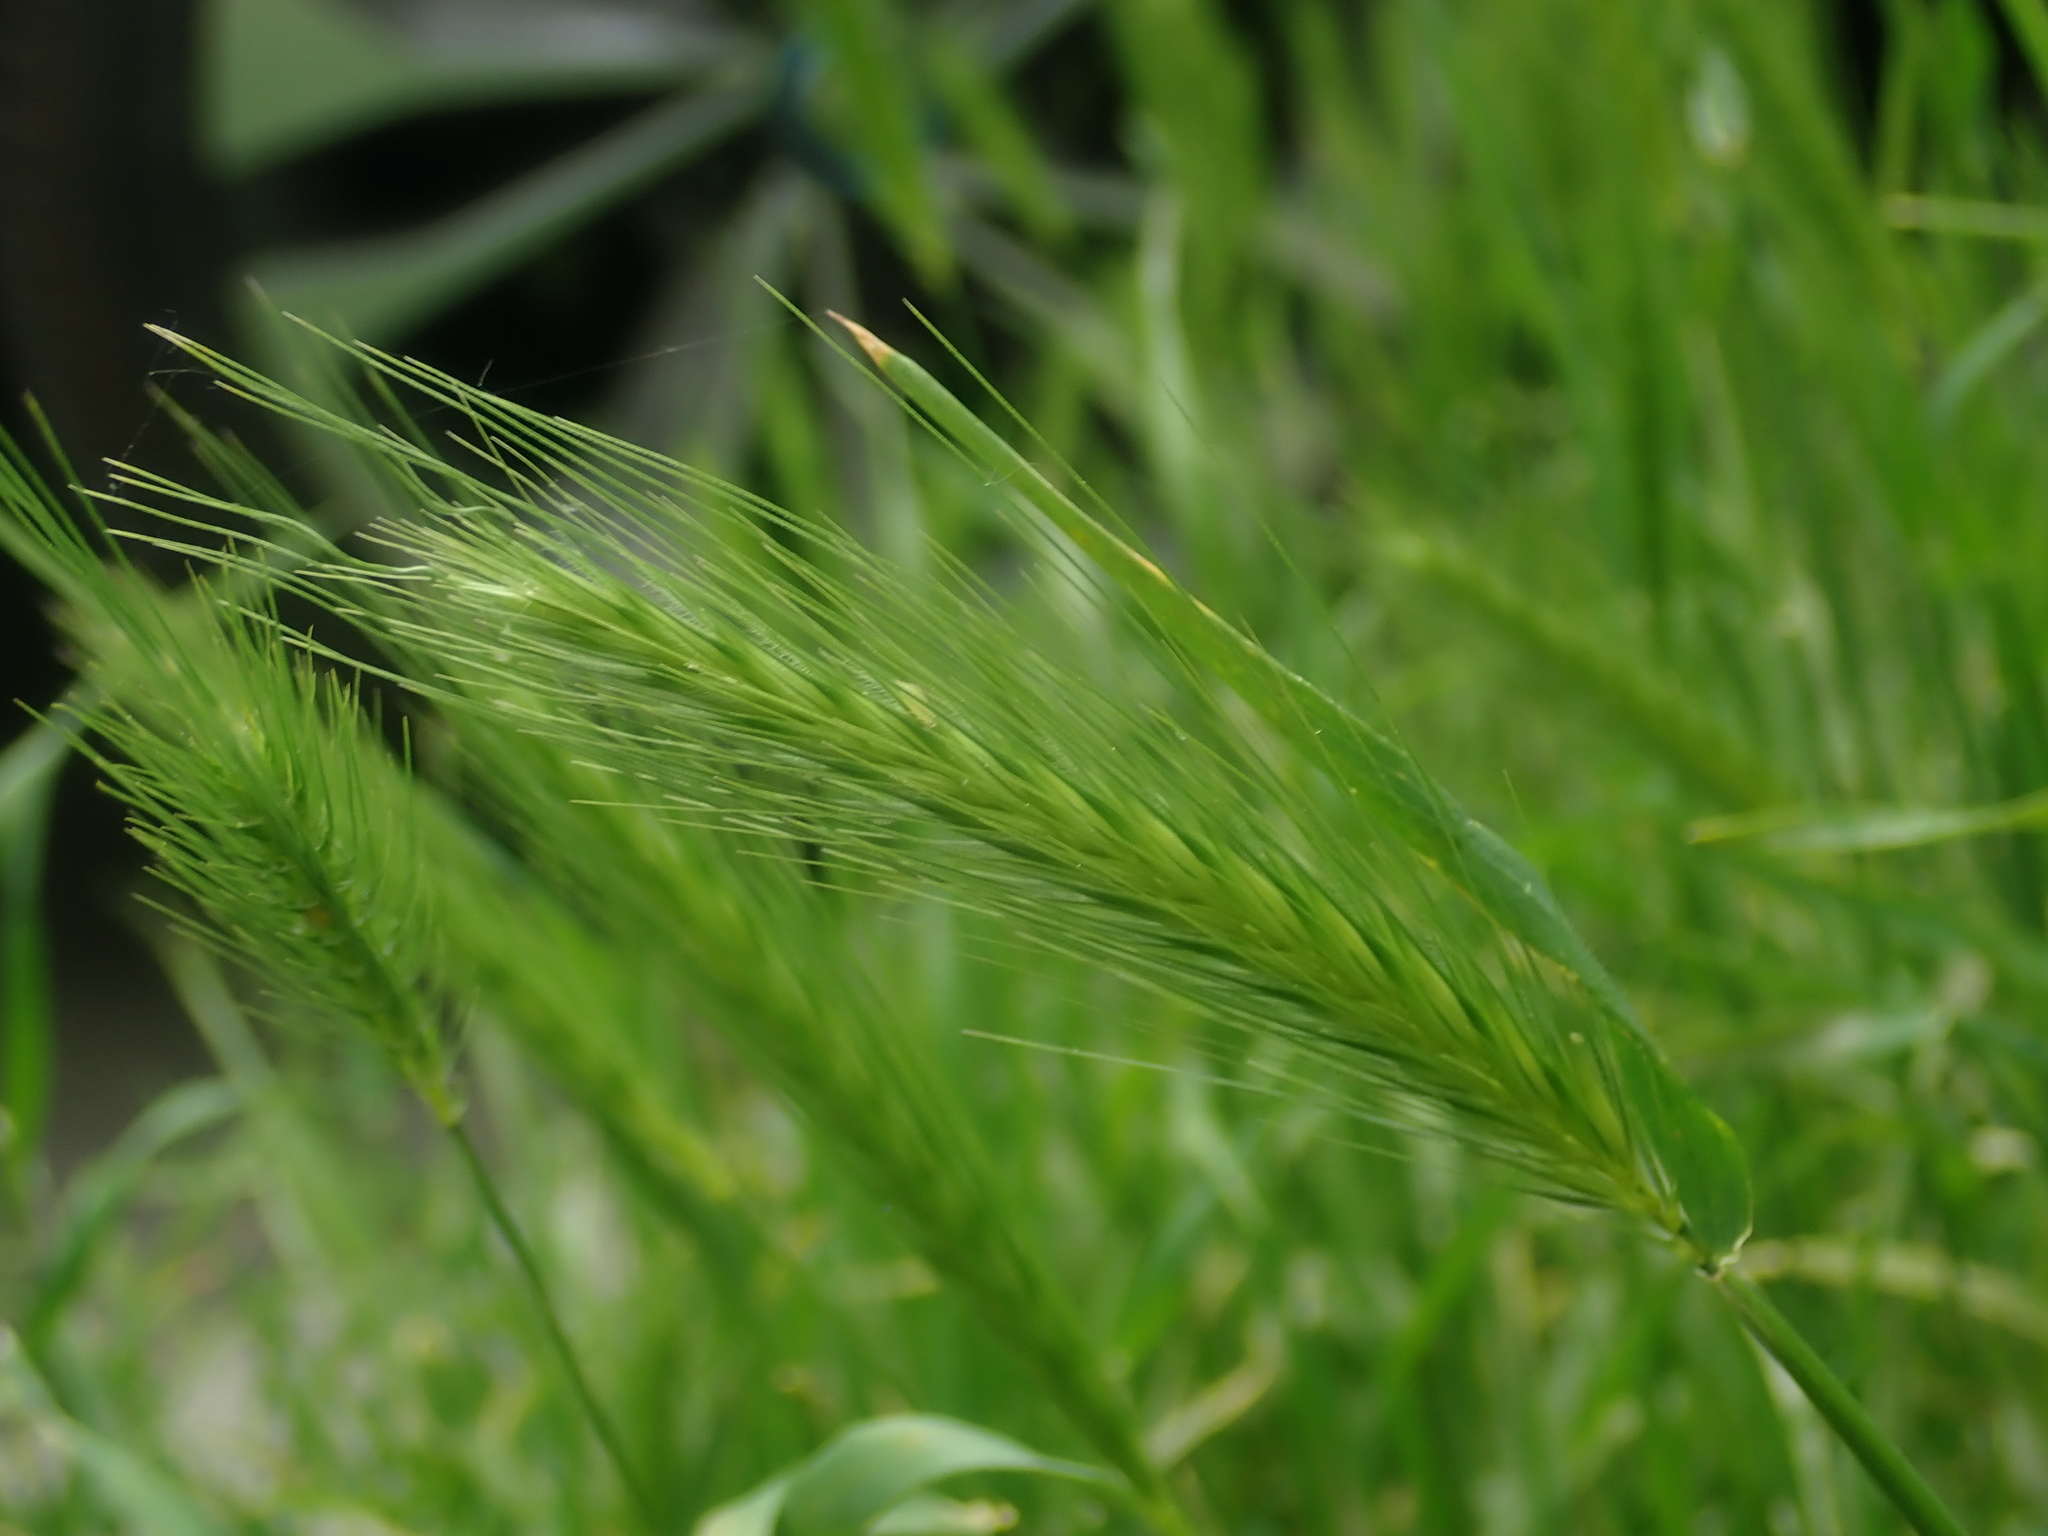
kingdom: Plantae
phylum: Tracheophyta
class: Liliopsida
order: Poales
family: Poaceae
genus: Hordeum
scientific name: Hordeum murinum
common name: Wall barley
